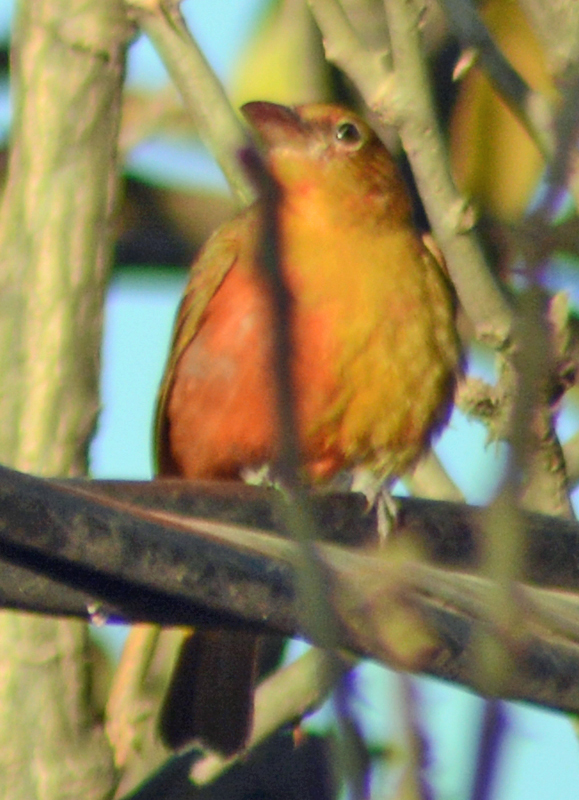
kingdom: Animalia
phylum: Chordata
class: Aves
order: Passeriformes
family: Cardinalidae
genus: Piranga
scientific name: Piranga flava
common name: Red tanager
